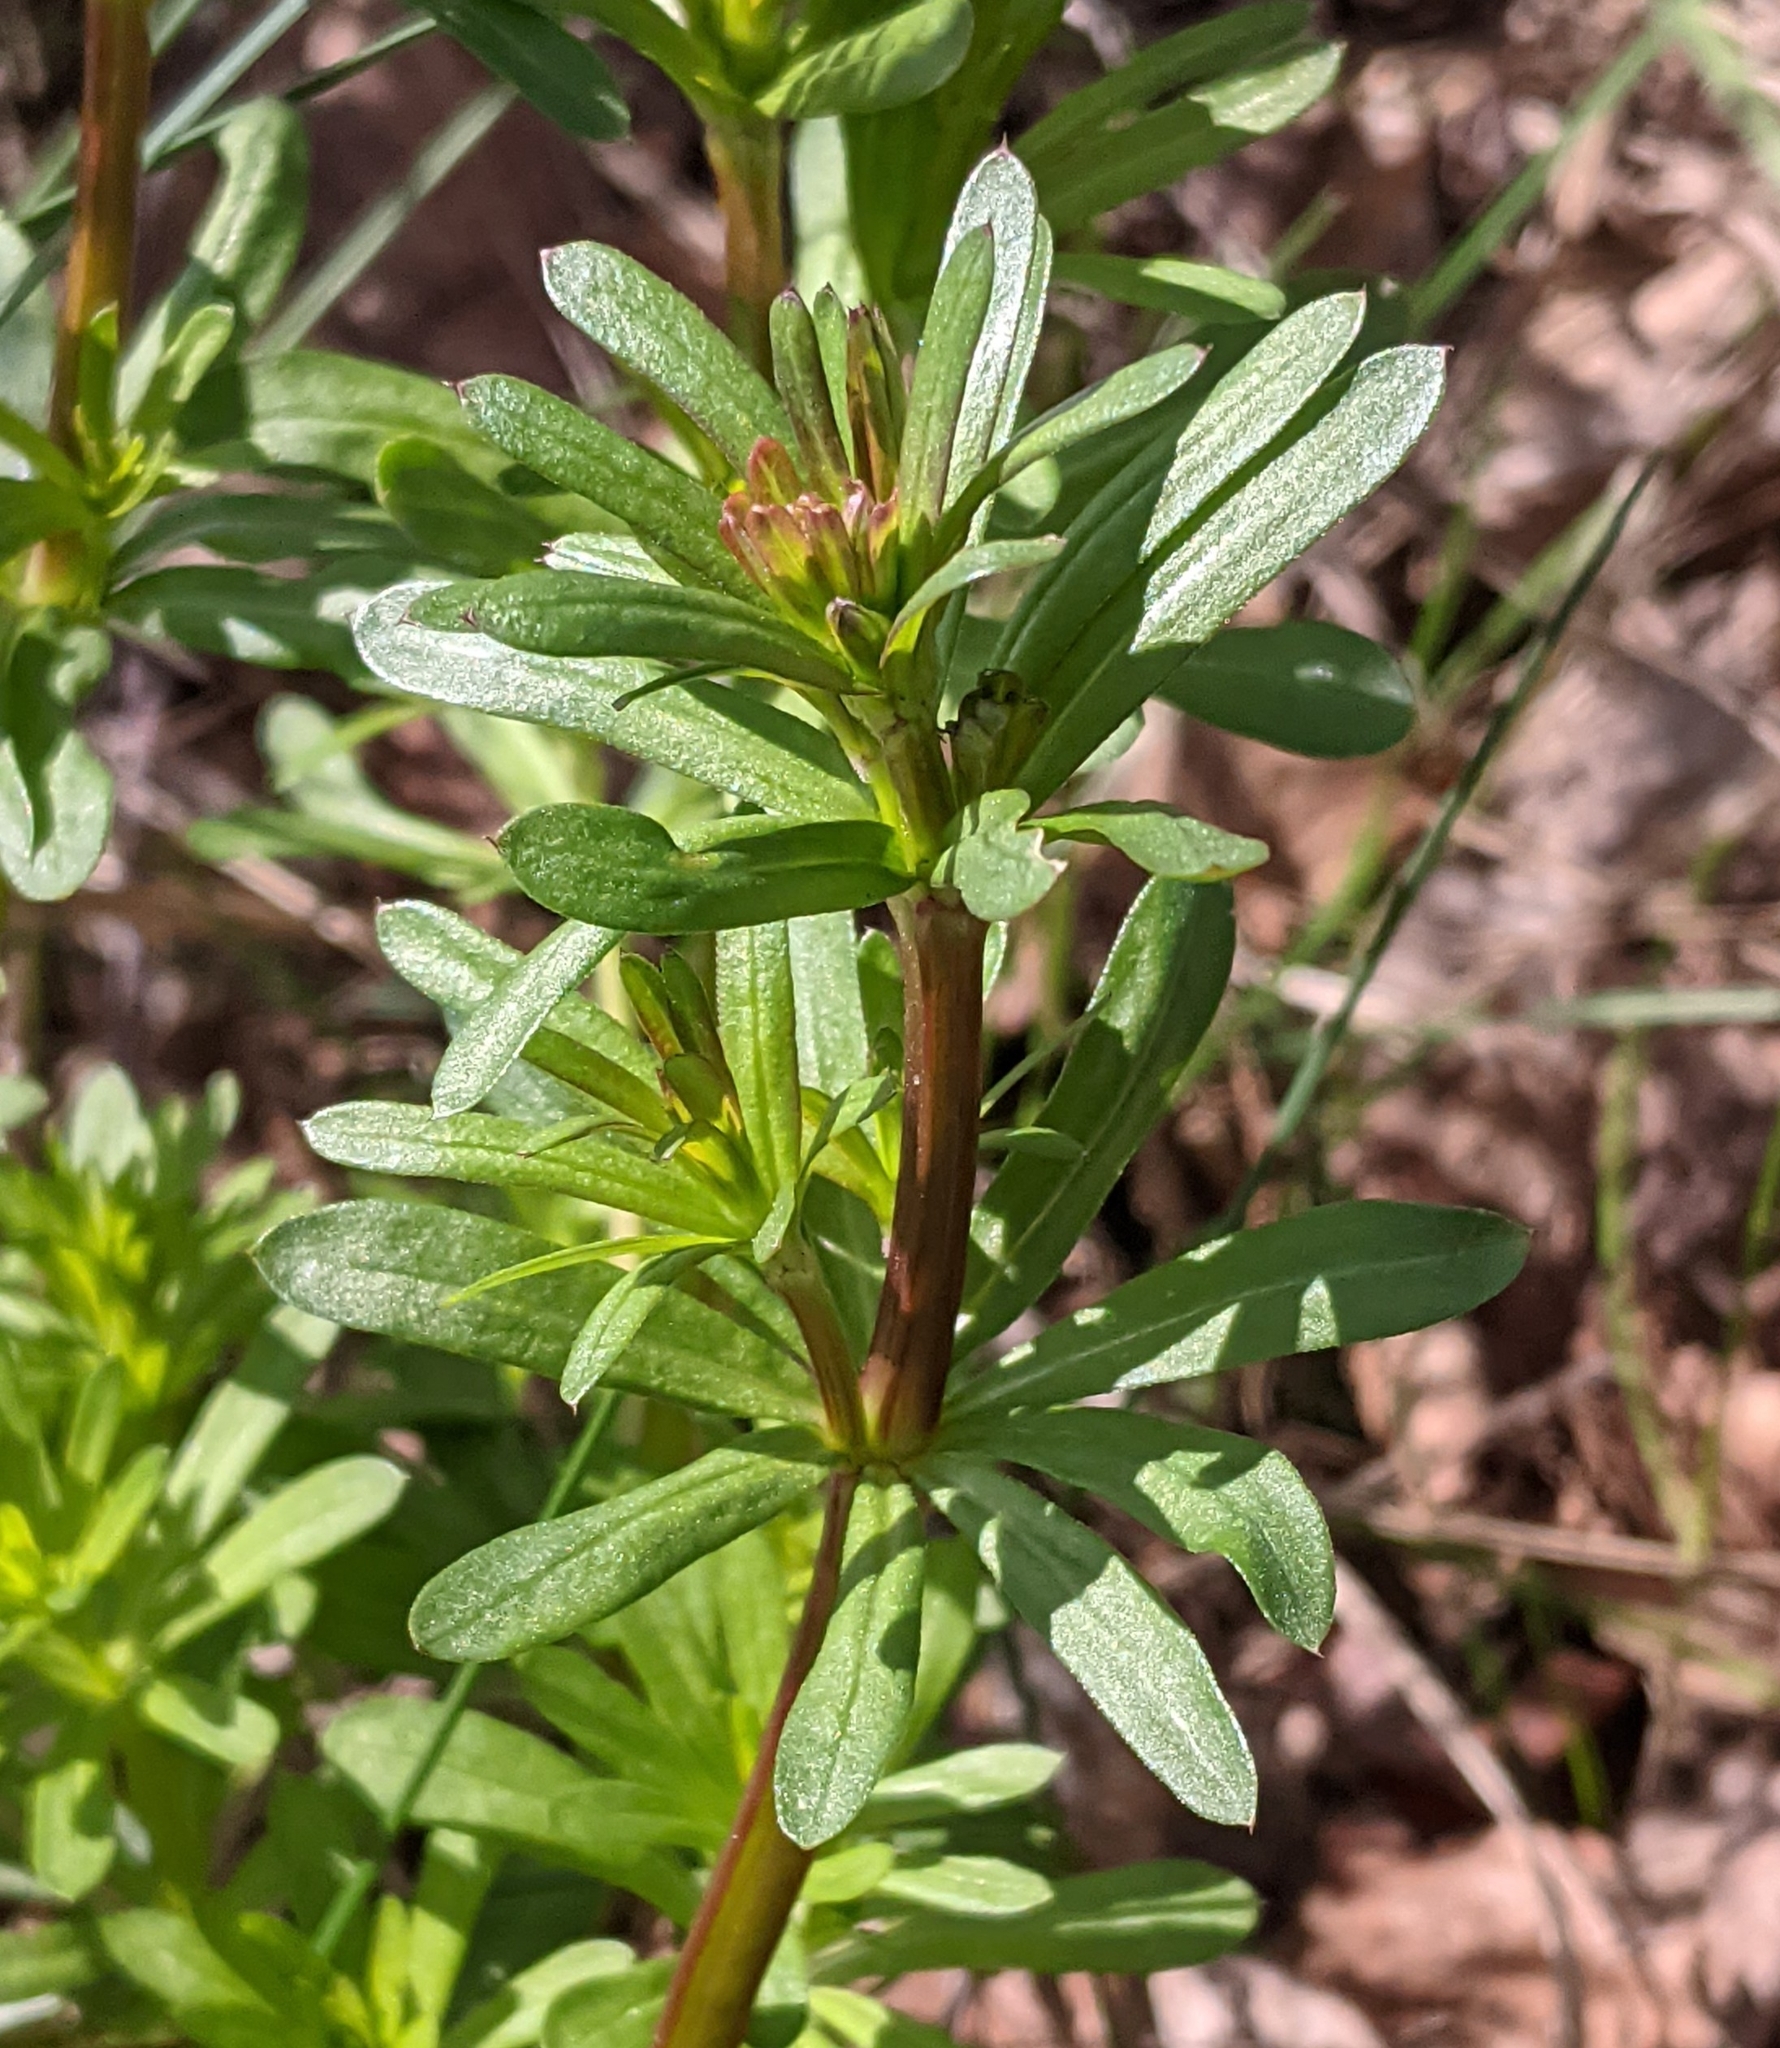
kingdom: Plantae
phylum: Tracheophyta
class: Magnoliopsida
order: Gentianales
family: Rubiaceae
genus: Galium
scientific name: Galium mollugo
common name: Hedge bedstraw
